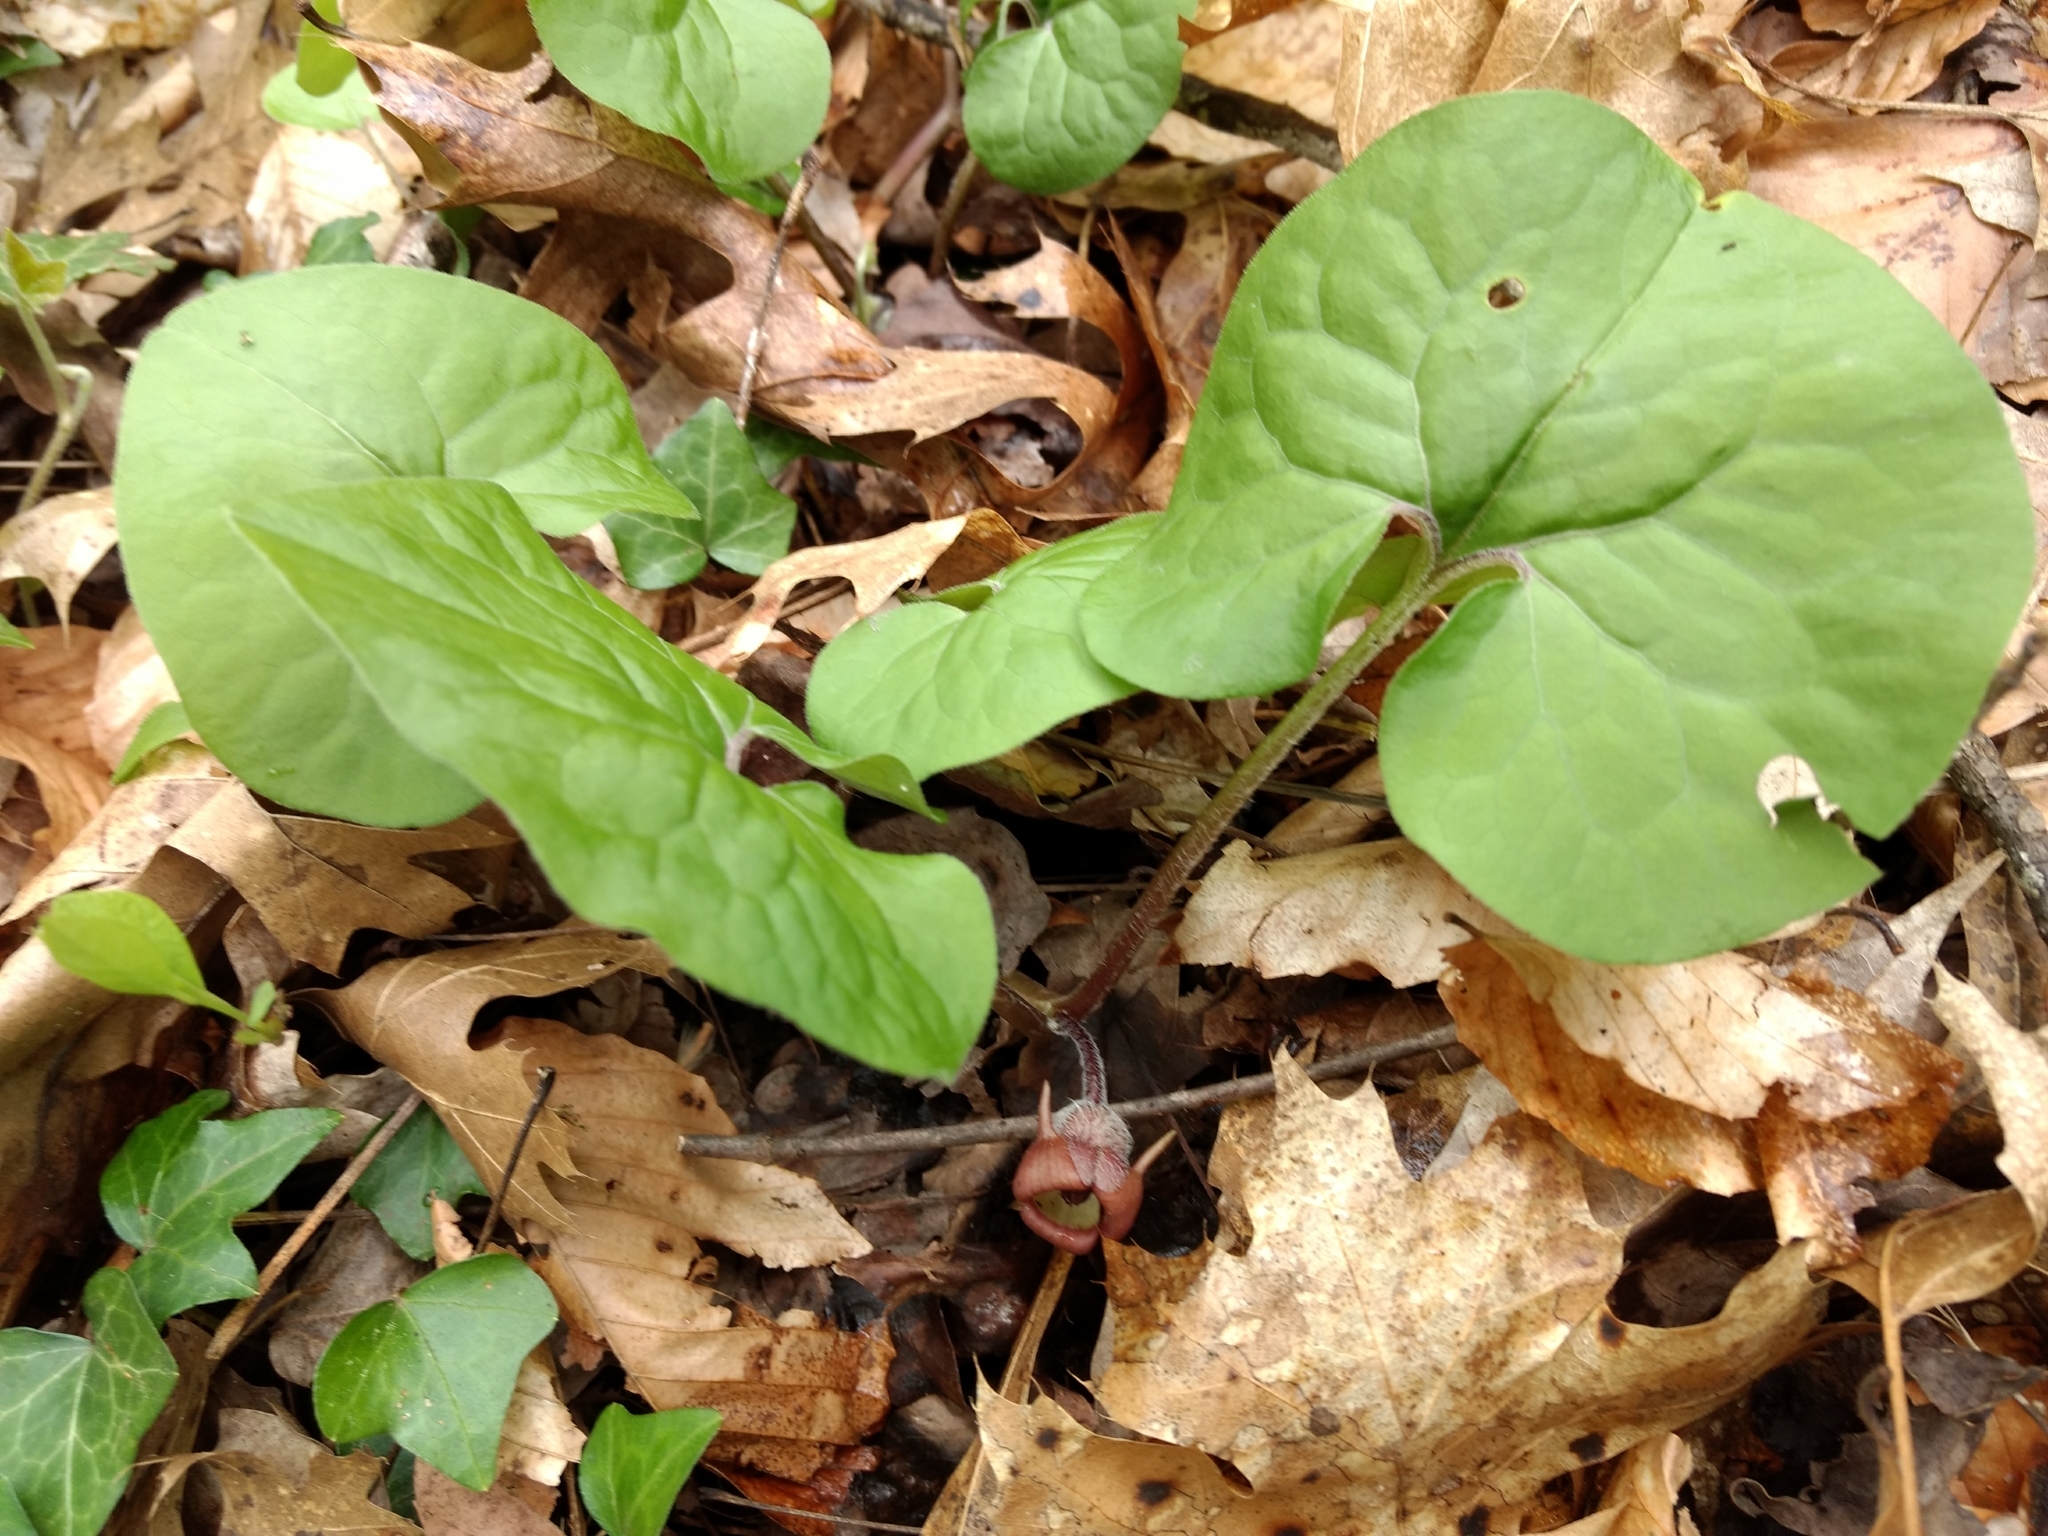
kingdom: Plantae
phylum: Tracheophyta
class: Magnoliopsida
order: Piperales
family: Aristolochiaceae
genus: Asarum
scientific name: Asarum canadense
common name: Wild ginger
